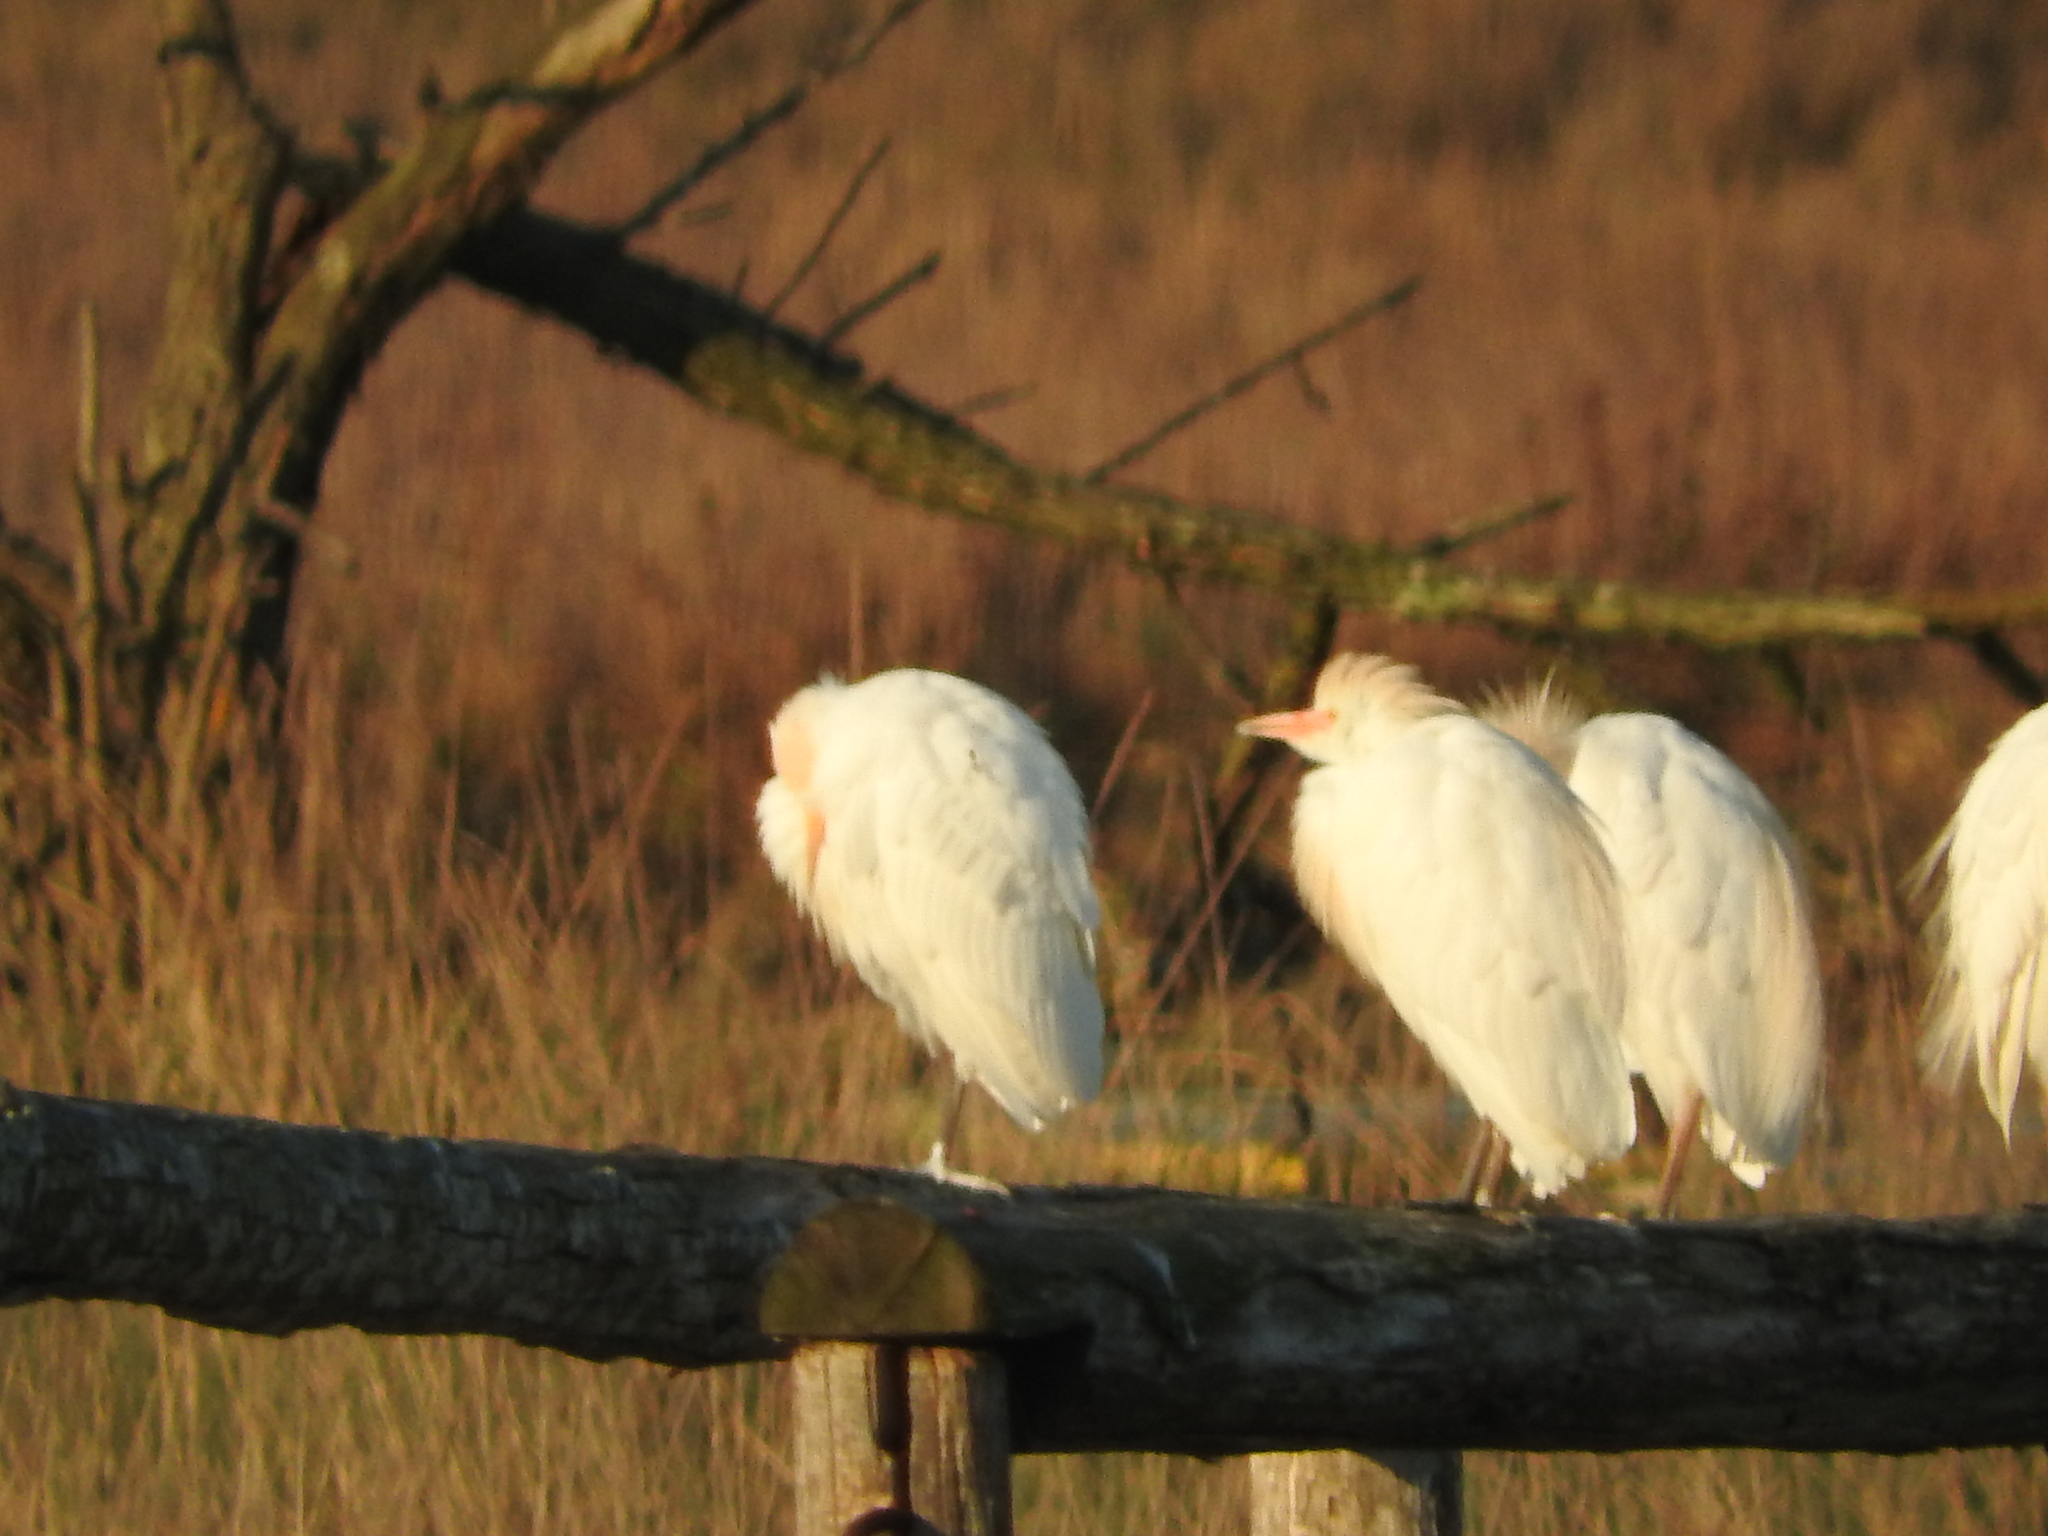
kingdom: Animalia
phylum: Chordata
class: Aves
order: Pelecaniformes
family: Ardeidae
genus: Bubulcus
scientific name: Bubulcus ibis
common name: Cattle egret
